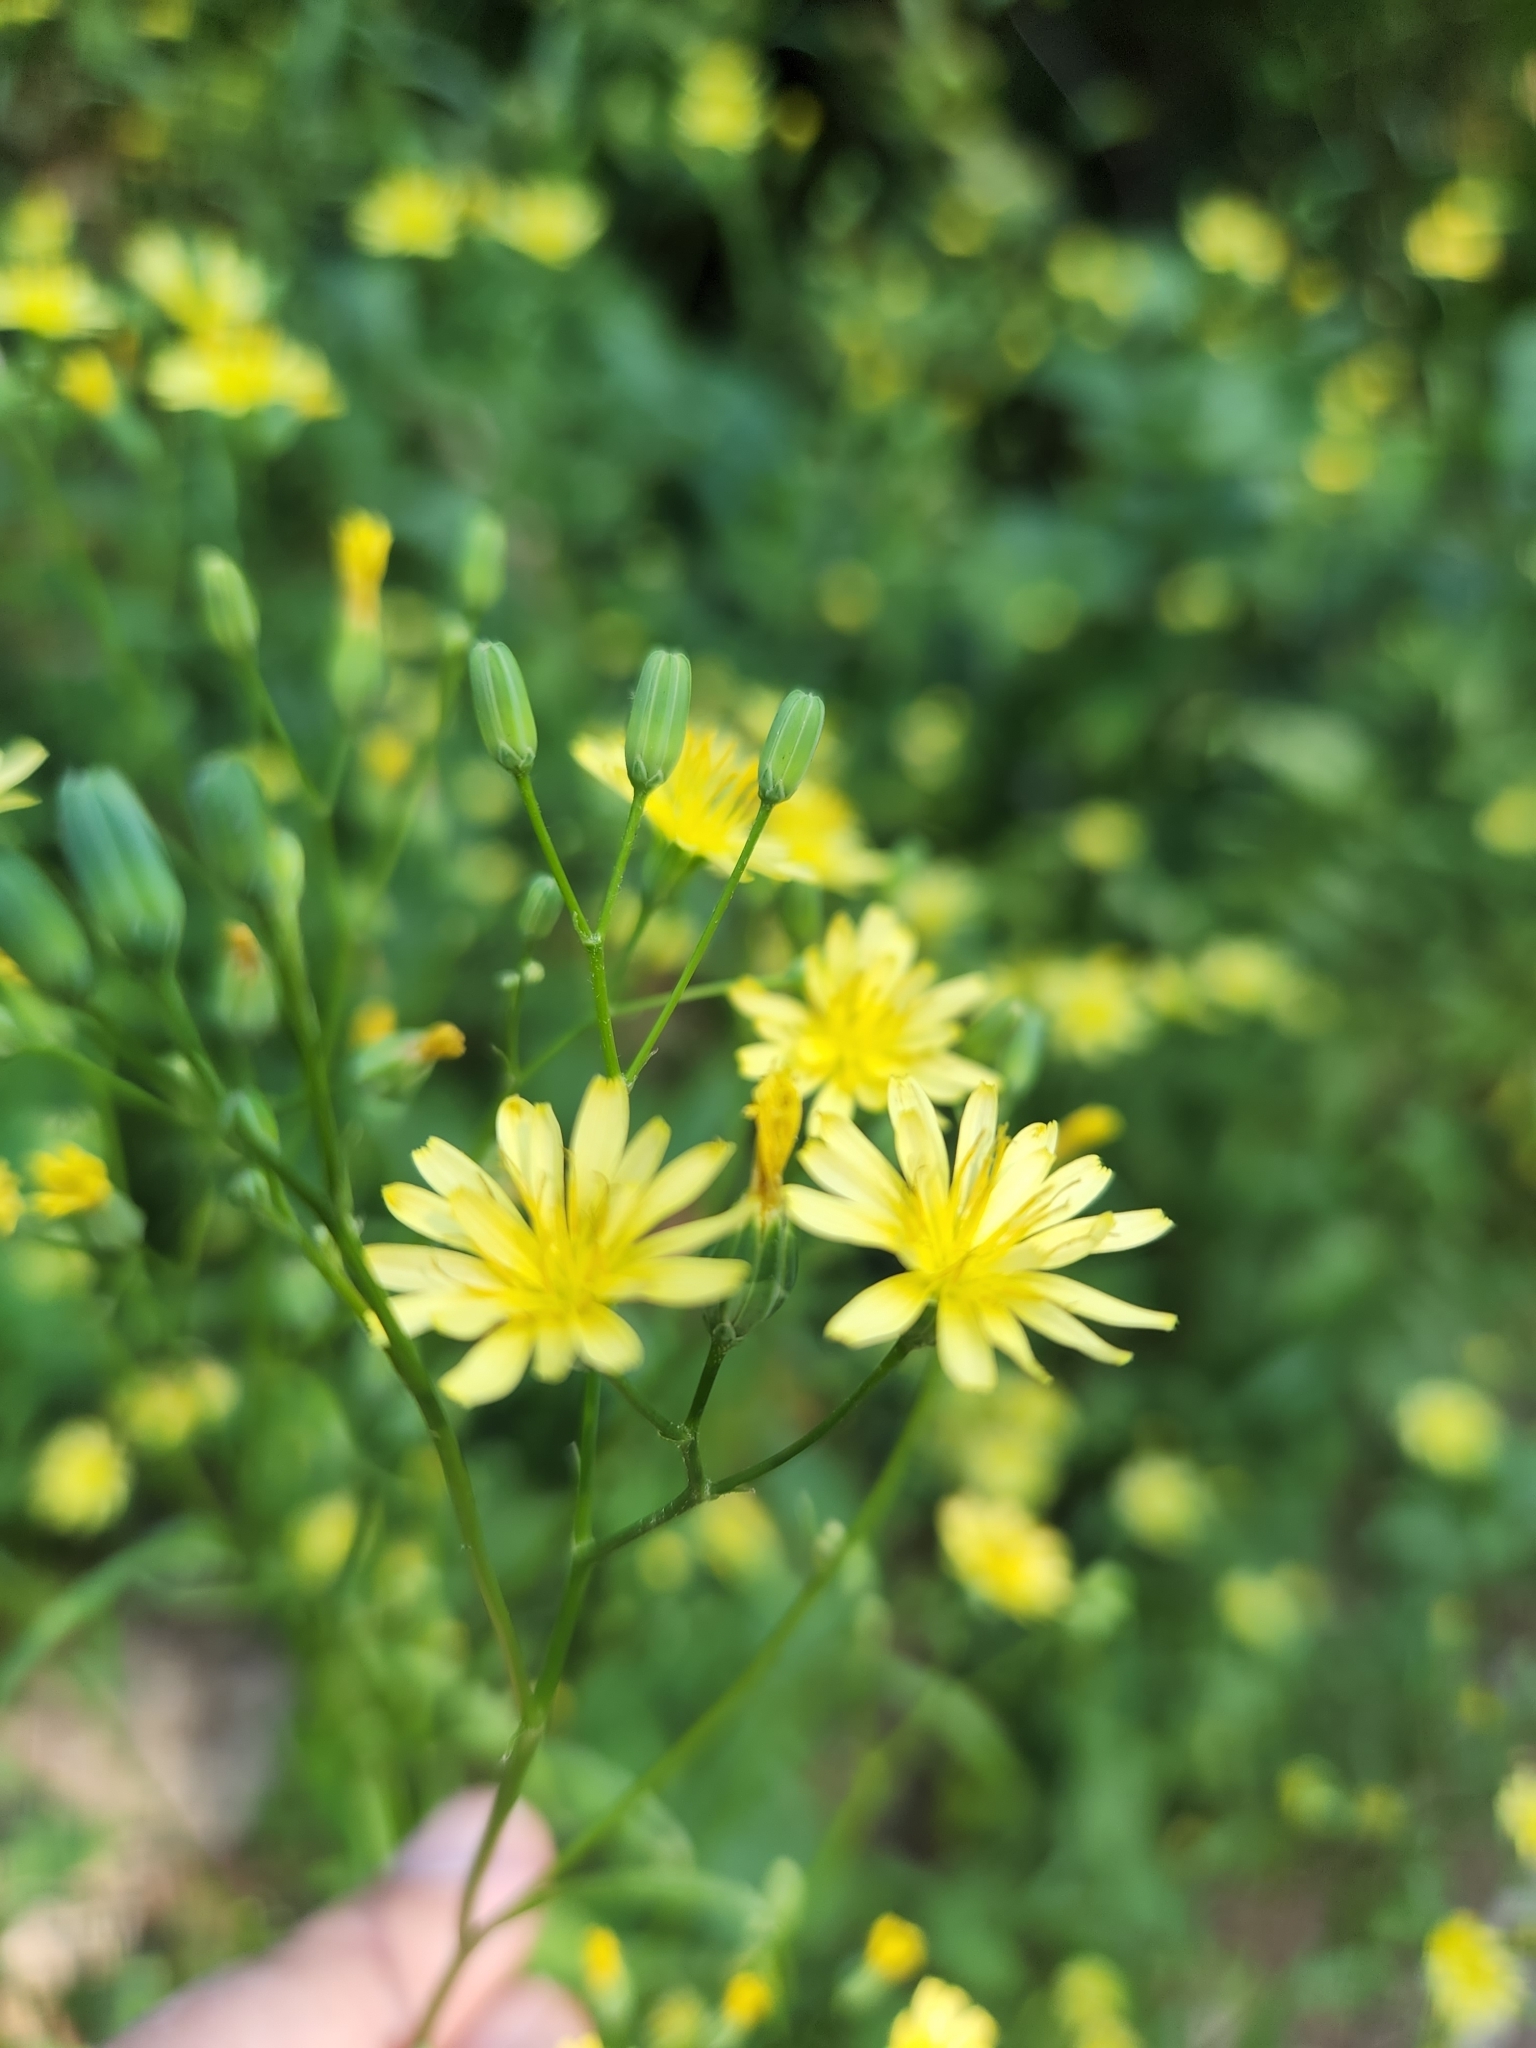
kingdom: Plantae
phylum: Tracheophyta
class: Magnoliopsida
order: Asterales
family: Asteraceae
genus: Lapsana
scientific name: Lapsana communis
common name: Nipplewort
